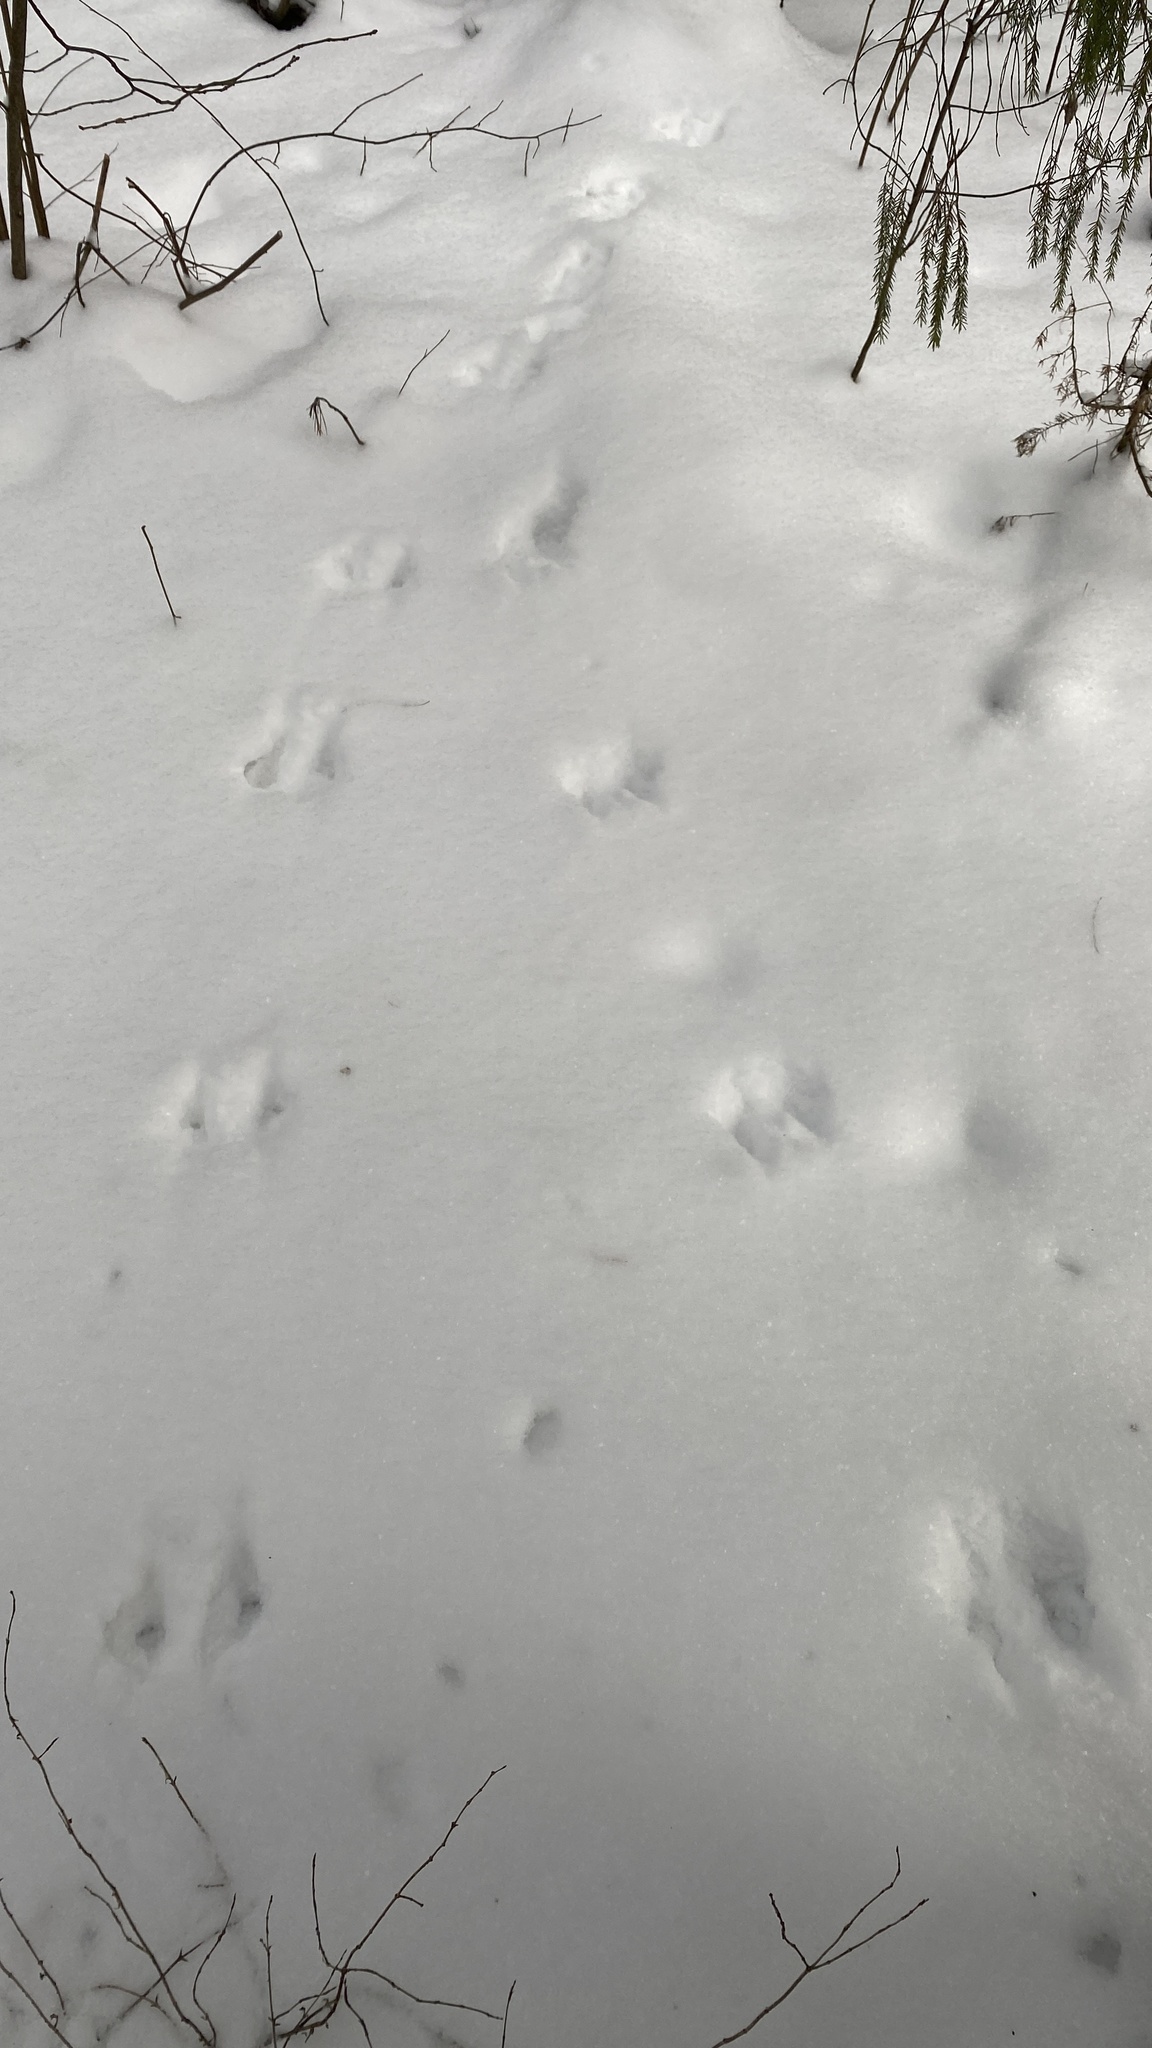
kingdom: Animalia
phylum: Chordata
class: Mammalia
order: Rodentia
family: Sciuridae
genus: Sciurus
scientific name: Sciurus vulgaris
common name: Eurasian red squirrel
